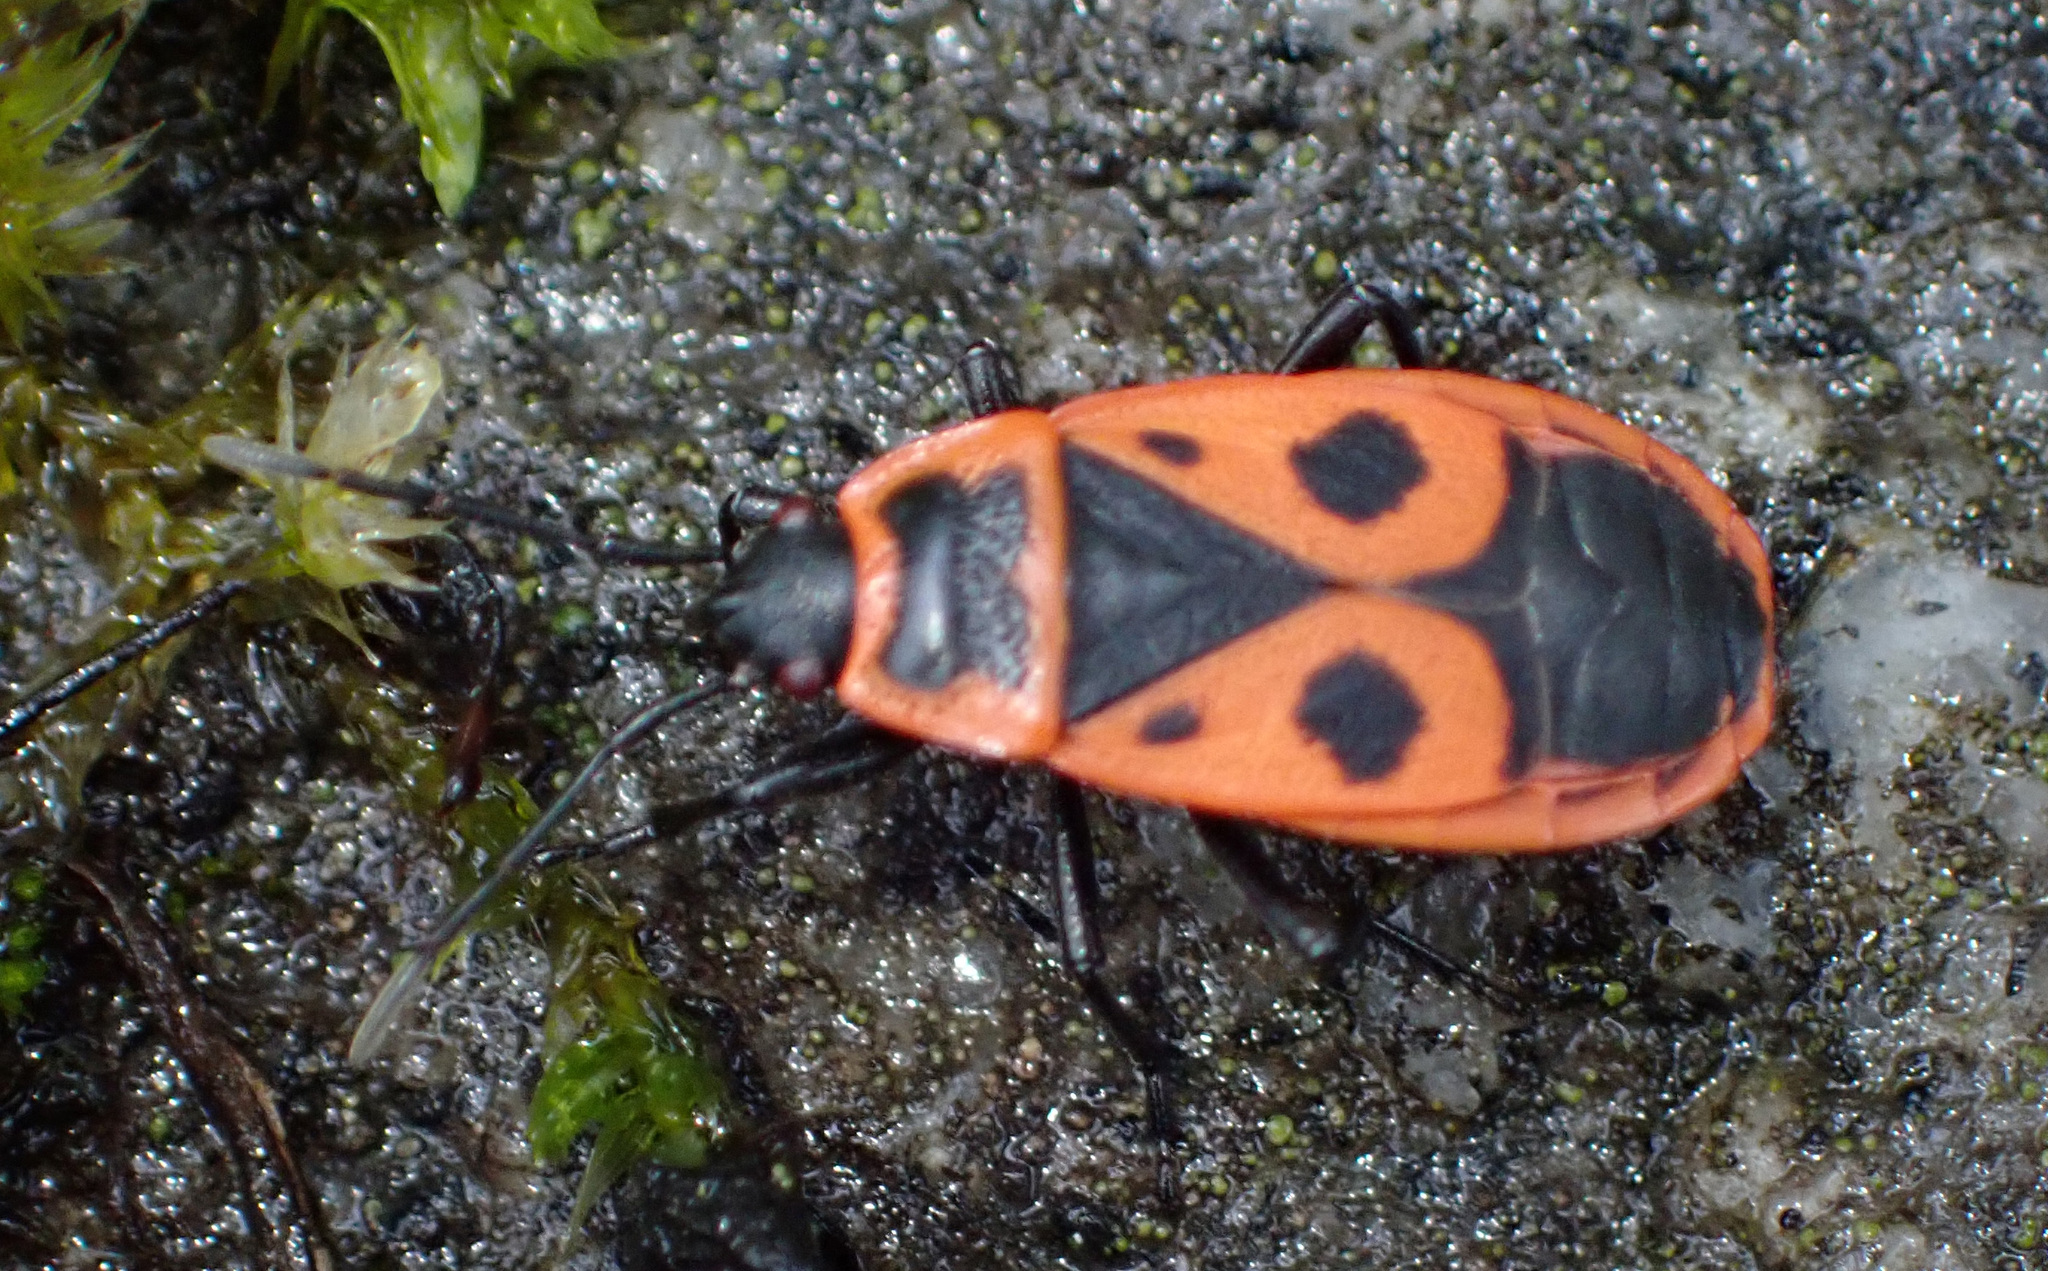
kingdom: Animalia
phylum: Arthropoda
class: Insecta
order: Hemiptera
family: Pyrrhocoridae
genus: Pyrrhocoris
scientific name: Pyrrhocoris apterus
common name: Firebug
